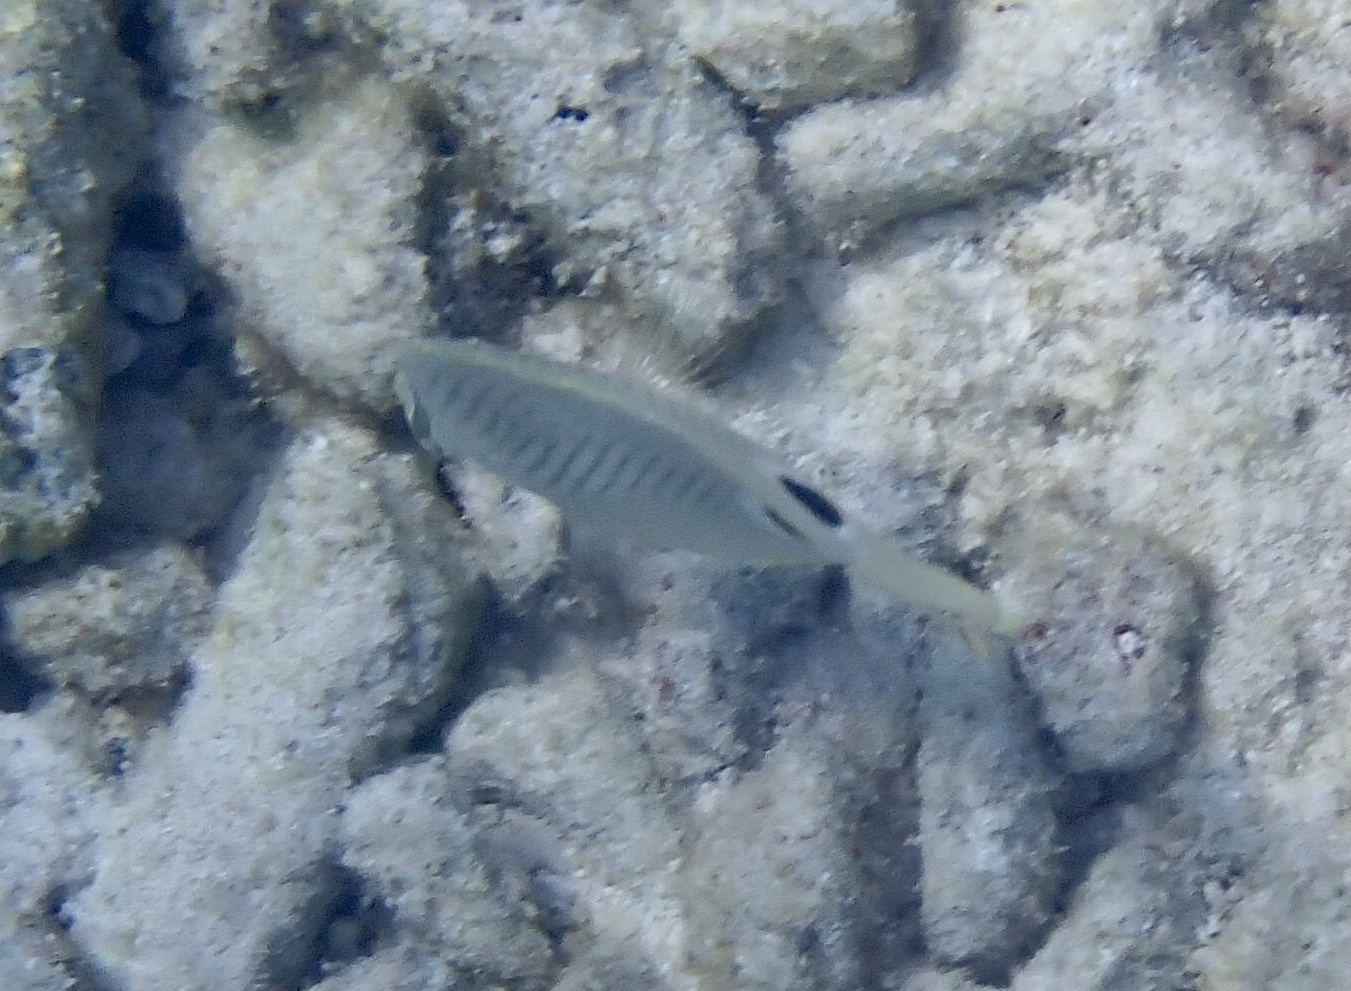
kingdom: Animalia
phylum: Chordata
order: Perciformes
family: Chaetodontidae
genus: Chaetodon
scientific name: Chaetodon capistratus
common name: Kete
